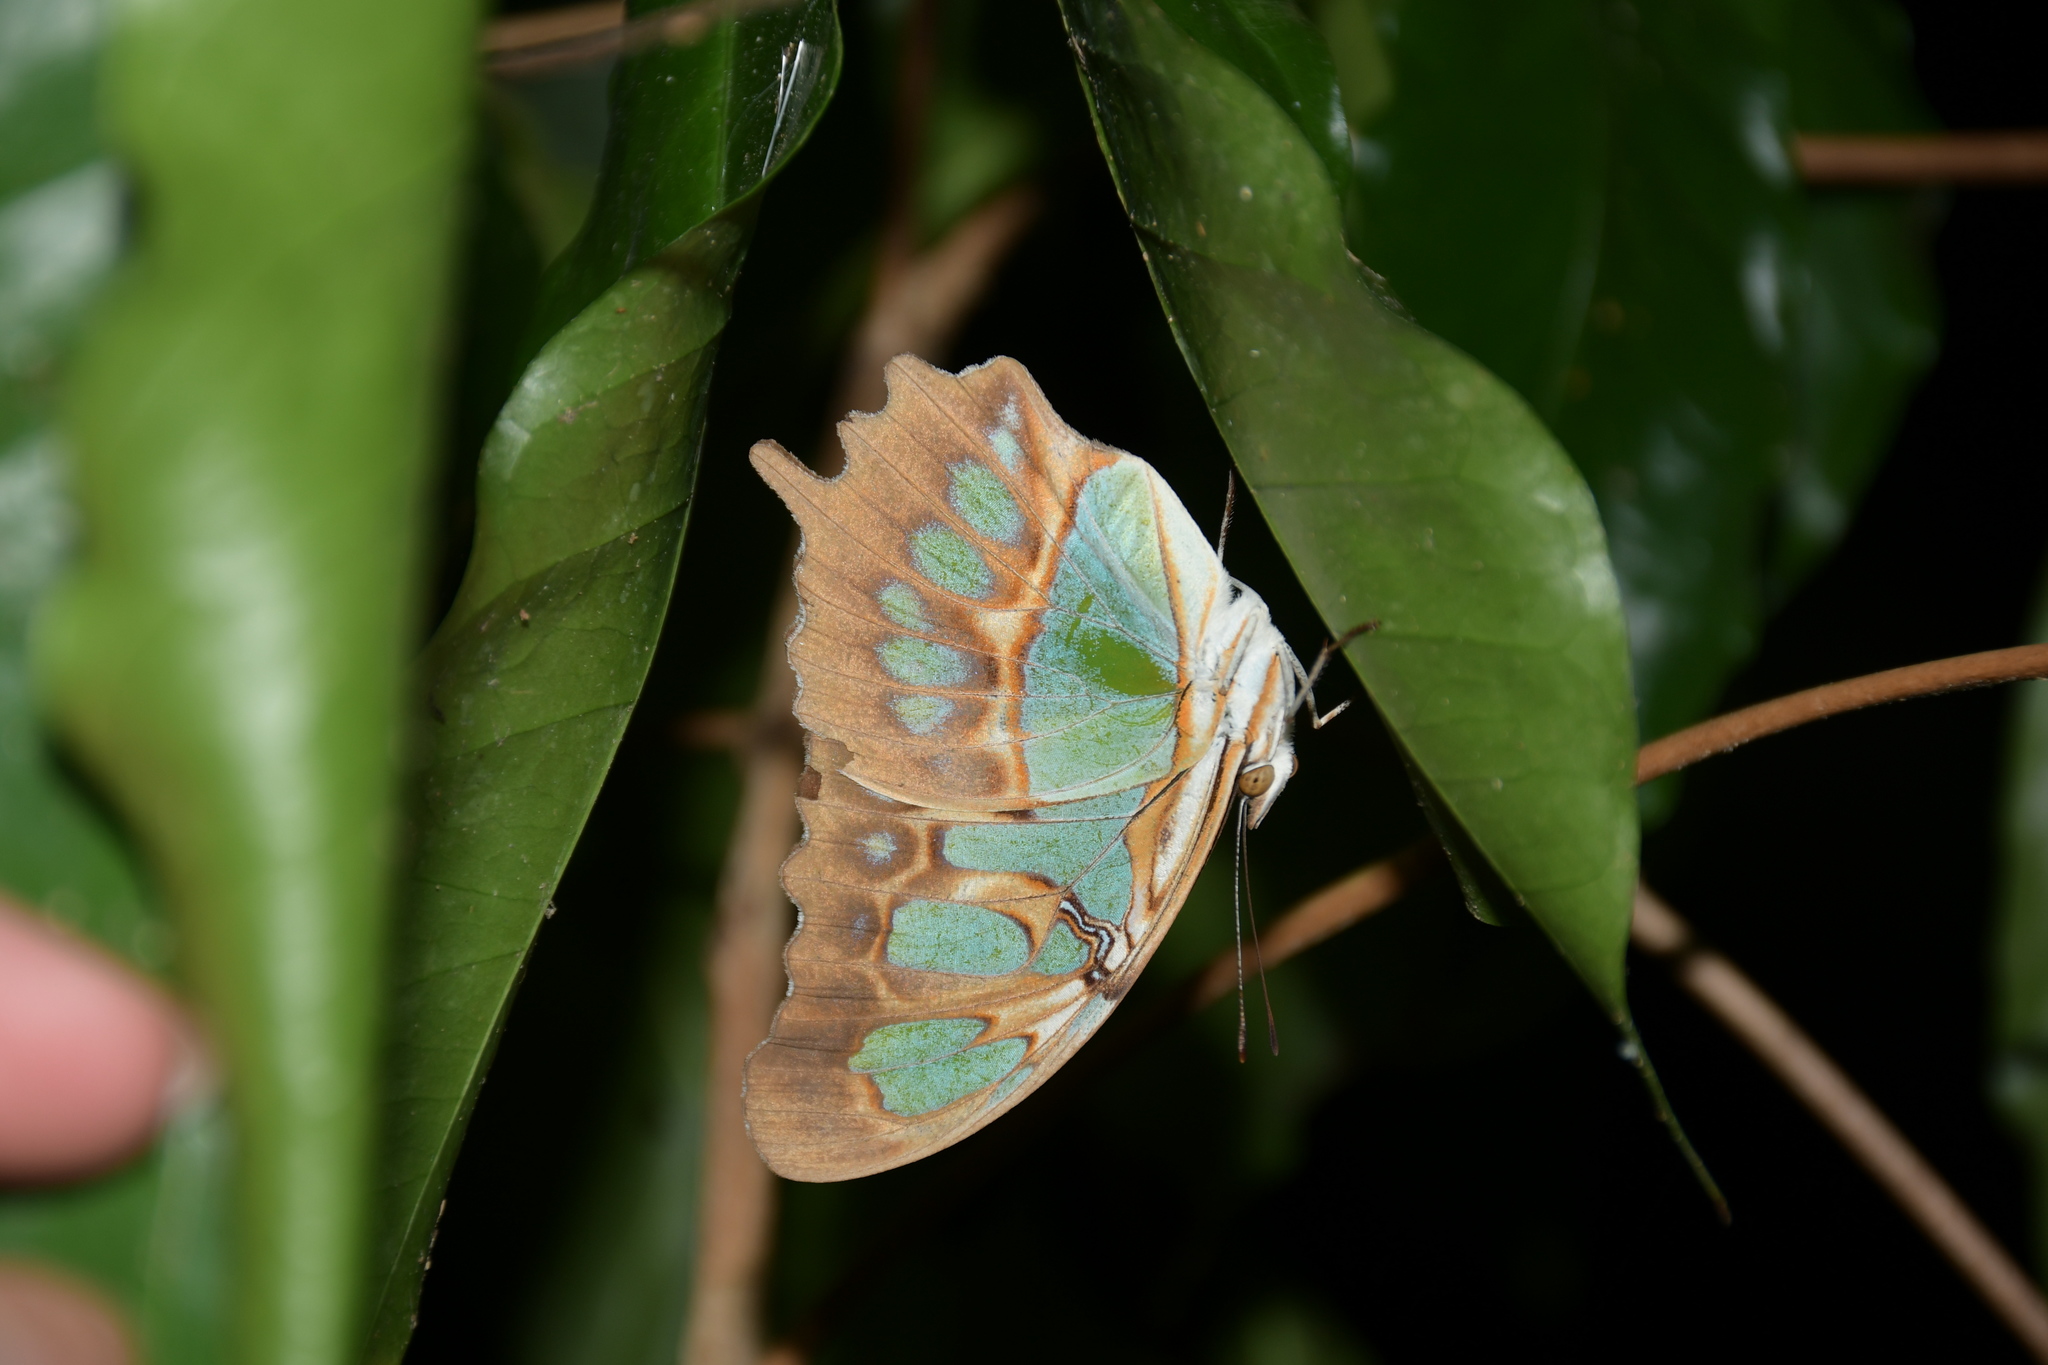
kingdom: Animalia
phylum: Arthropoda
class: Insecta
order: Lepidoptera
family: Nymphalidae
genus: Siproeta
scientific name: Siproeta stelenes
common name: Malachite
